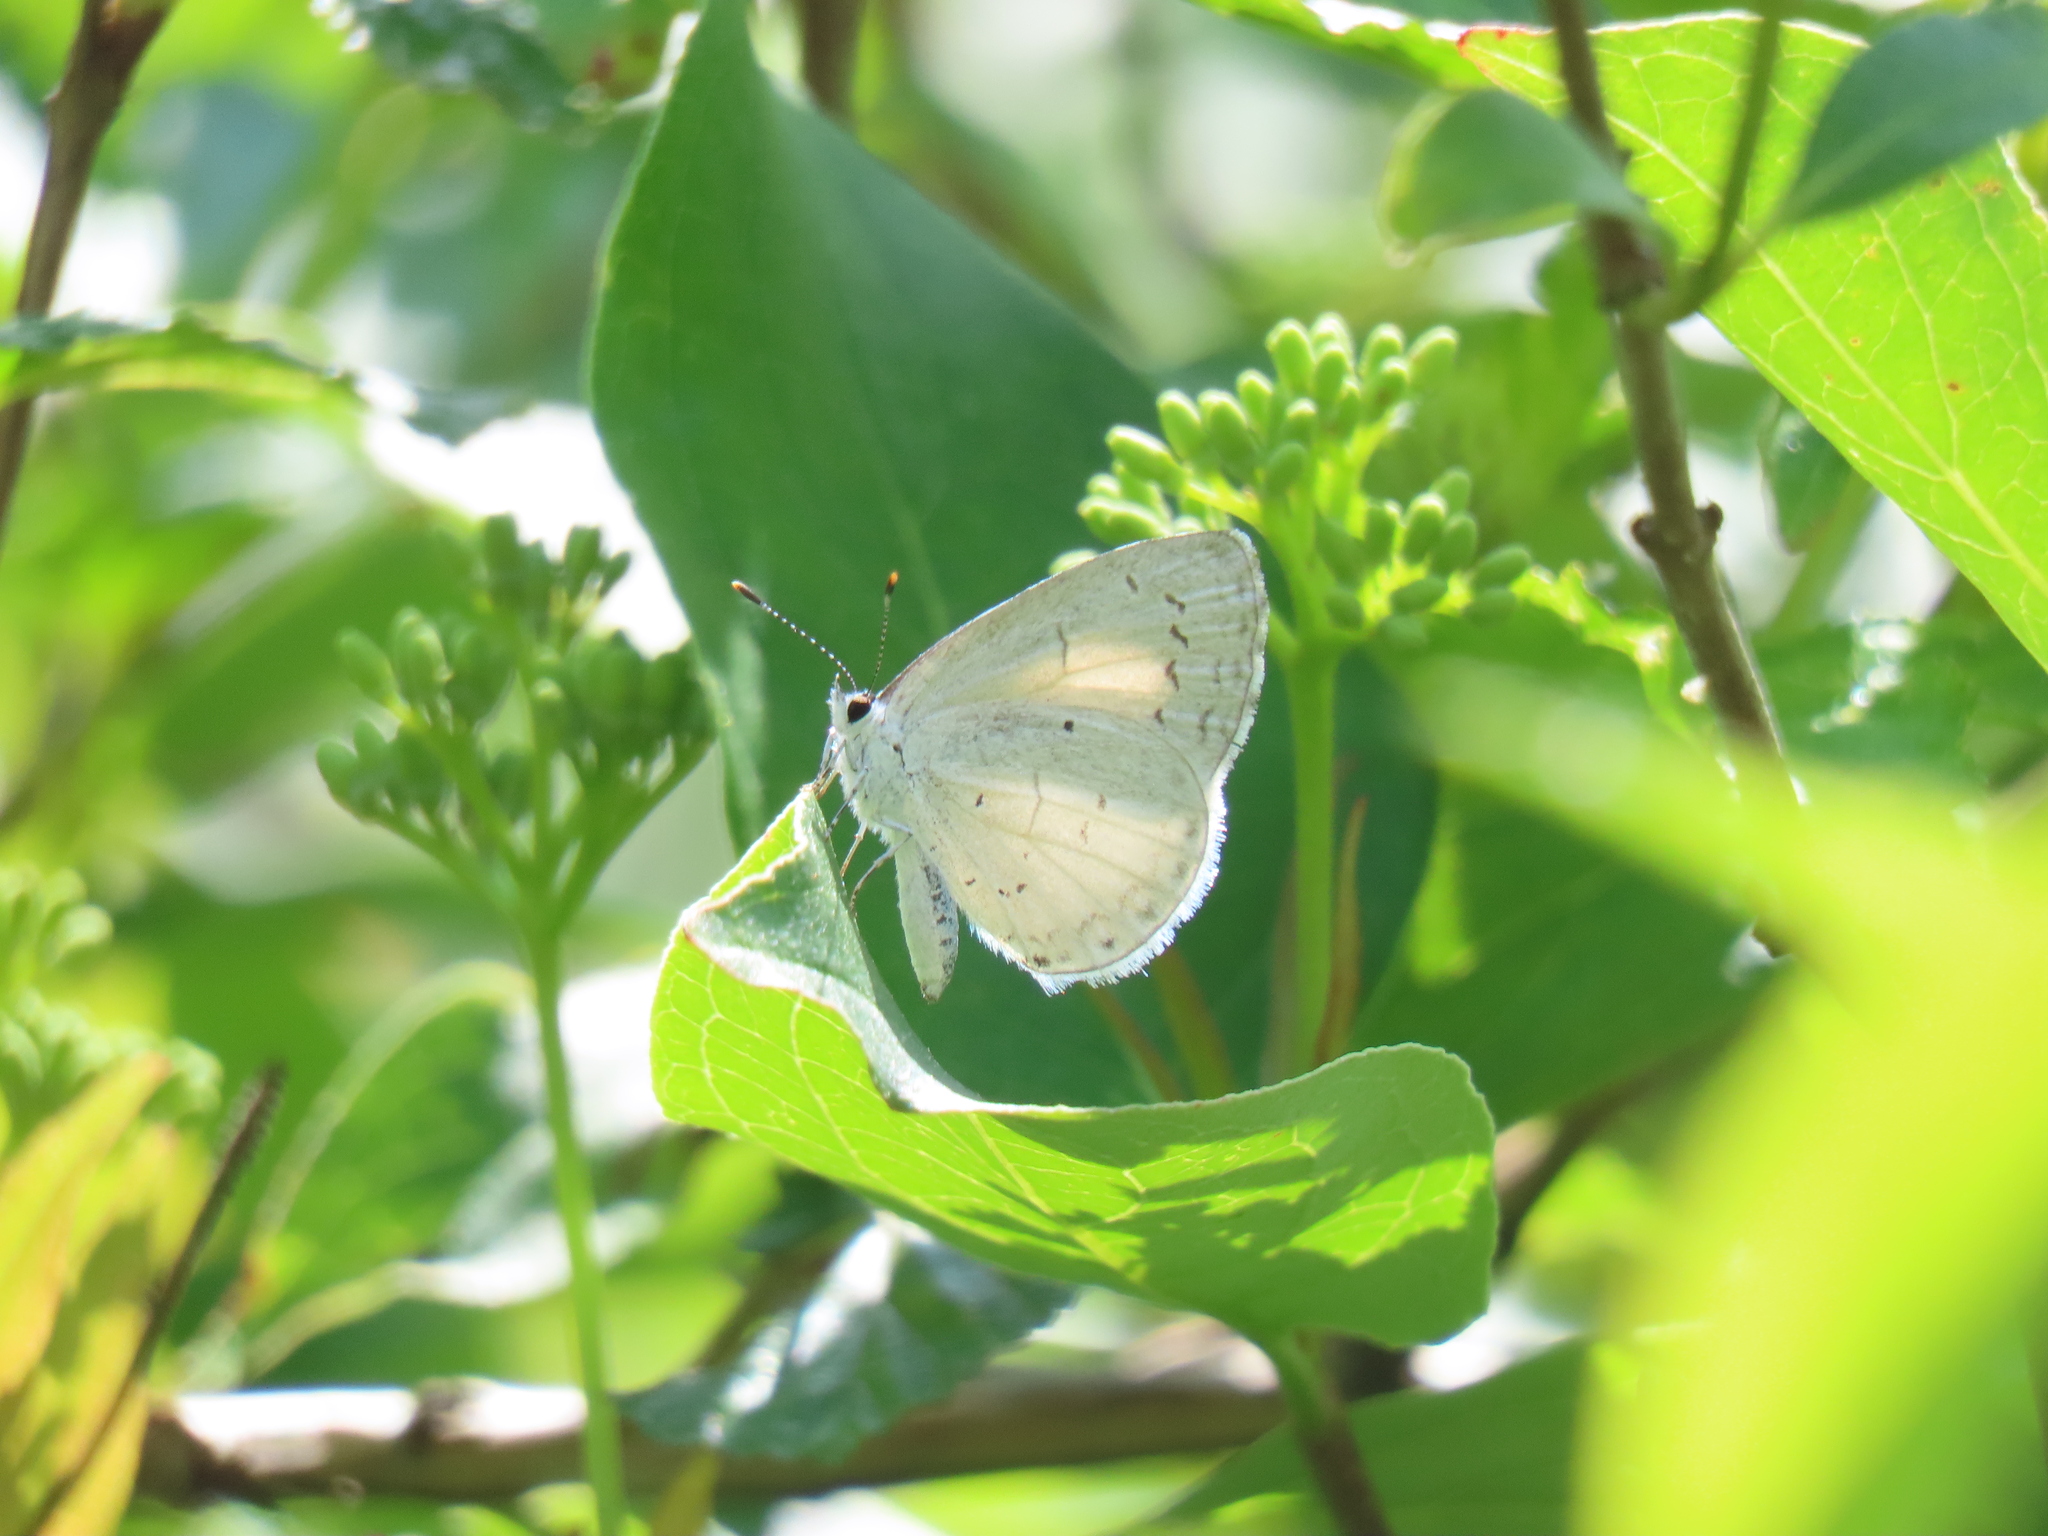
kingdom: Animalia
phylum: Arthropoda
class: Insecta
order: Lepidoptera
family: Lycaenidae
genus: Cyaniris
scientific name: Cyaniris neglecta
